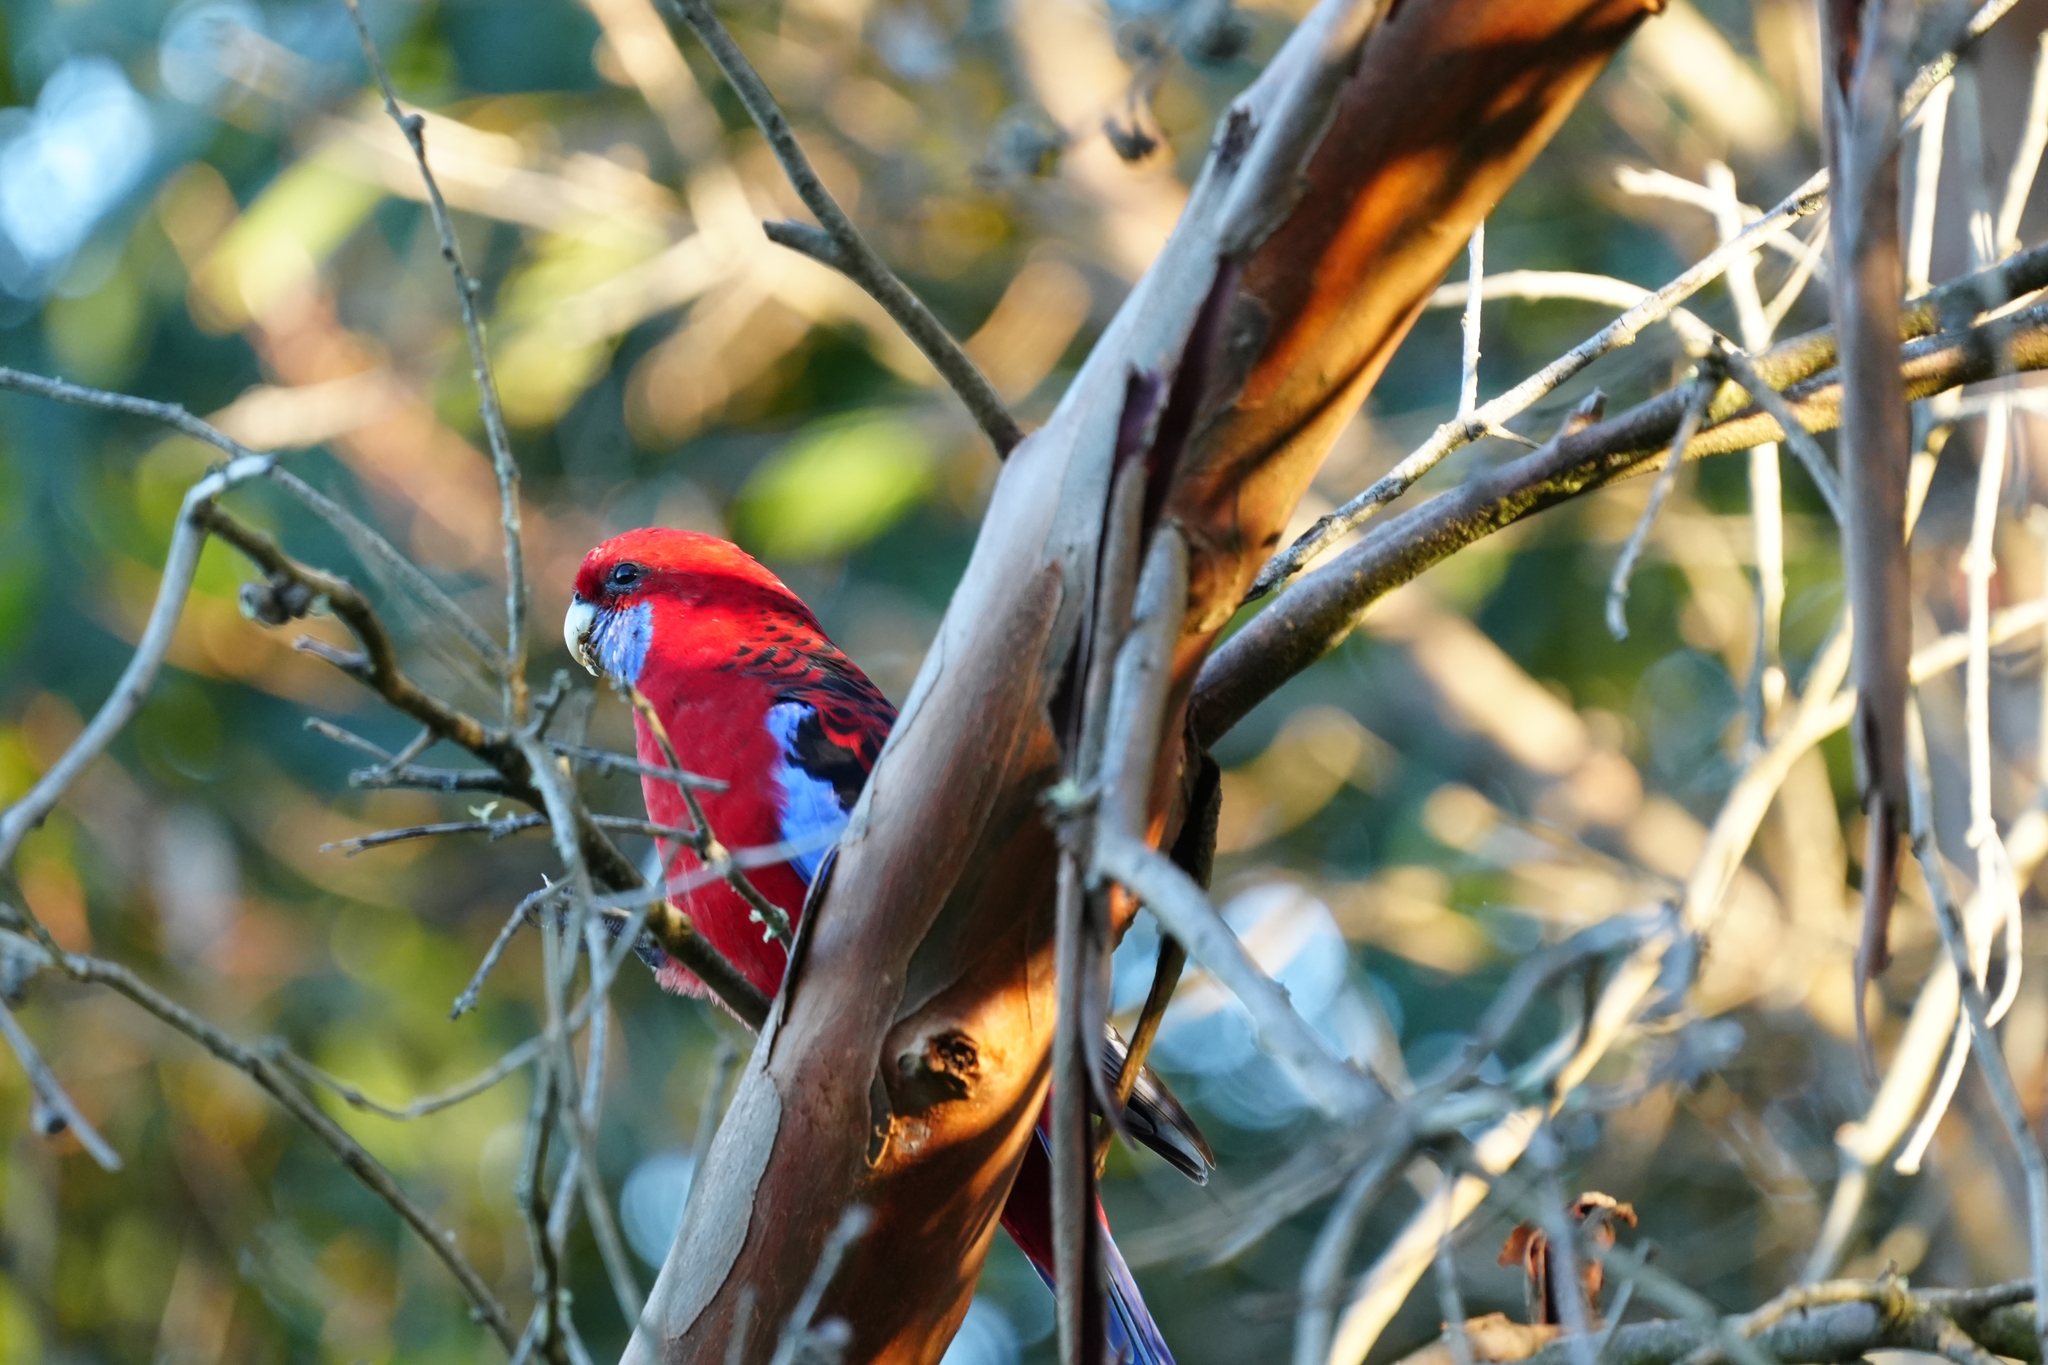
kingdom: Animalia
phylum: Chordata
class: Aves
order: Psittaciformes
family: Psittacidae
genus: Platycercus
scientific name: Platycercus elegans
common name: Crimson rosella
